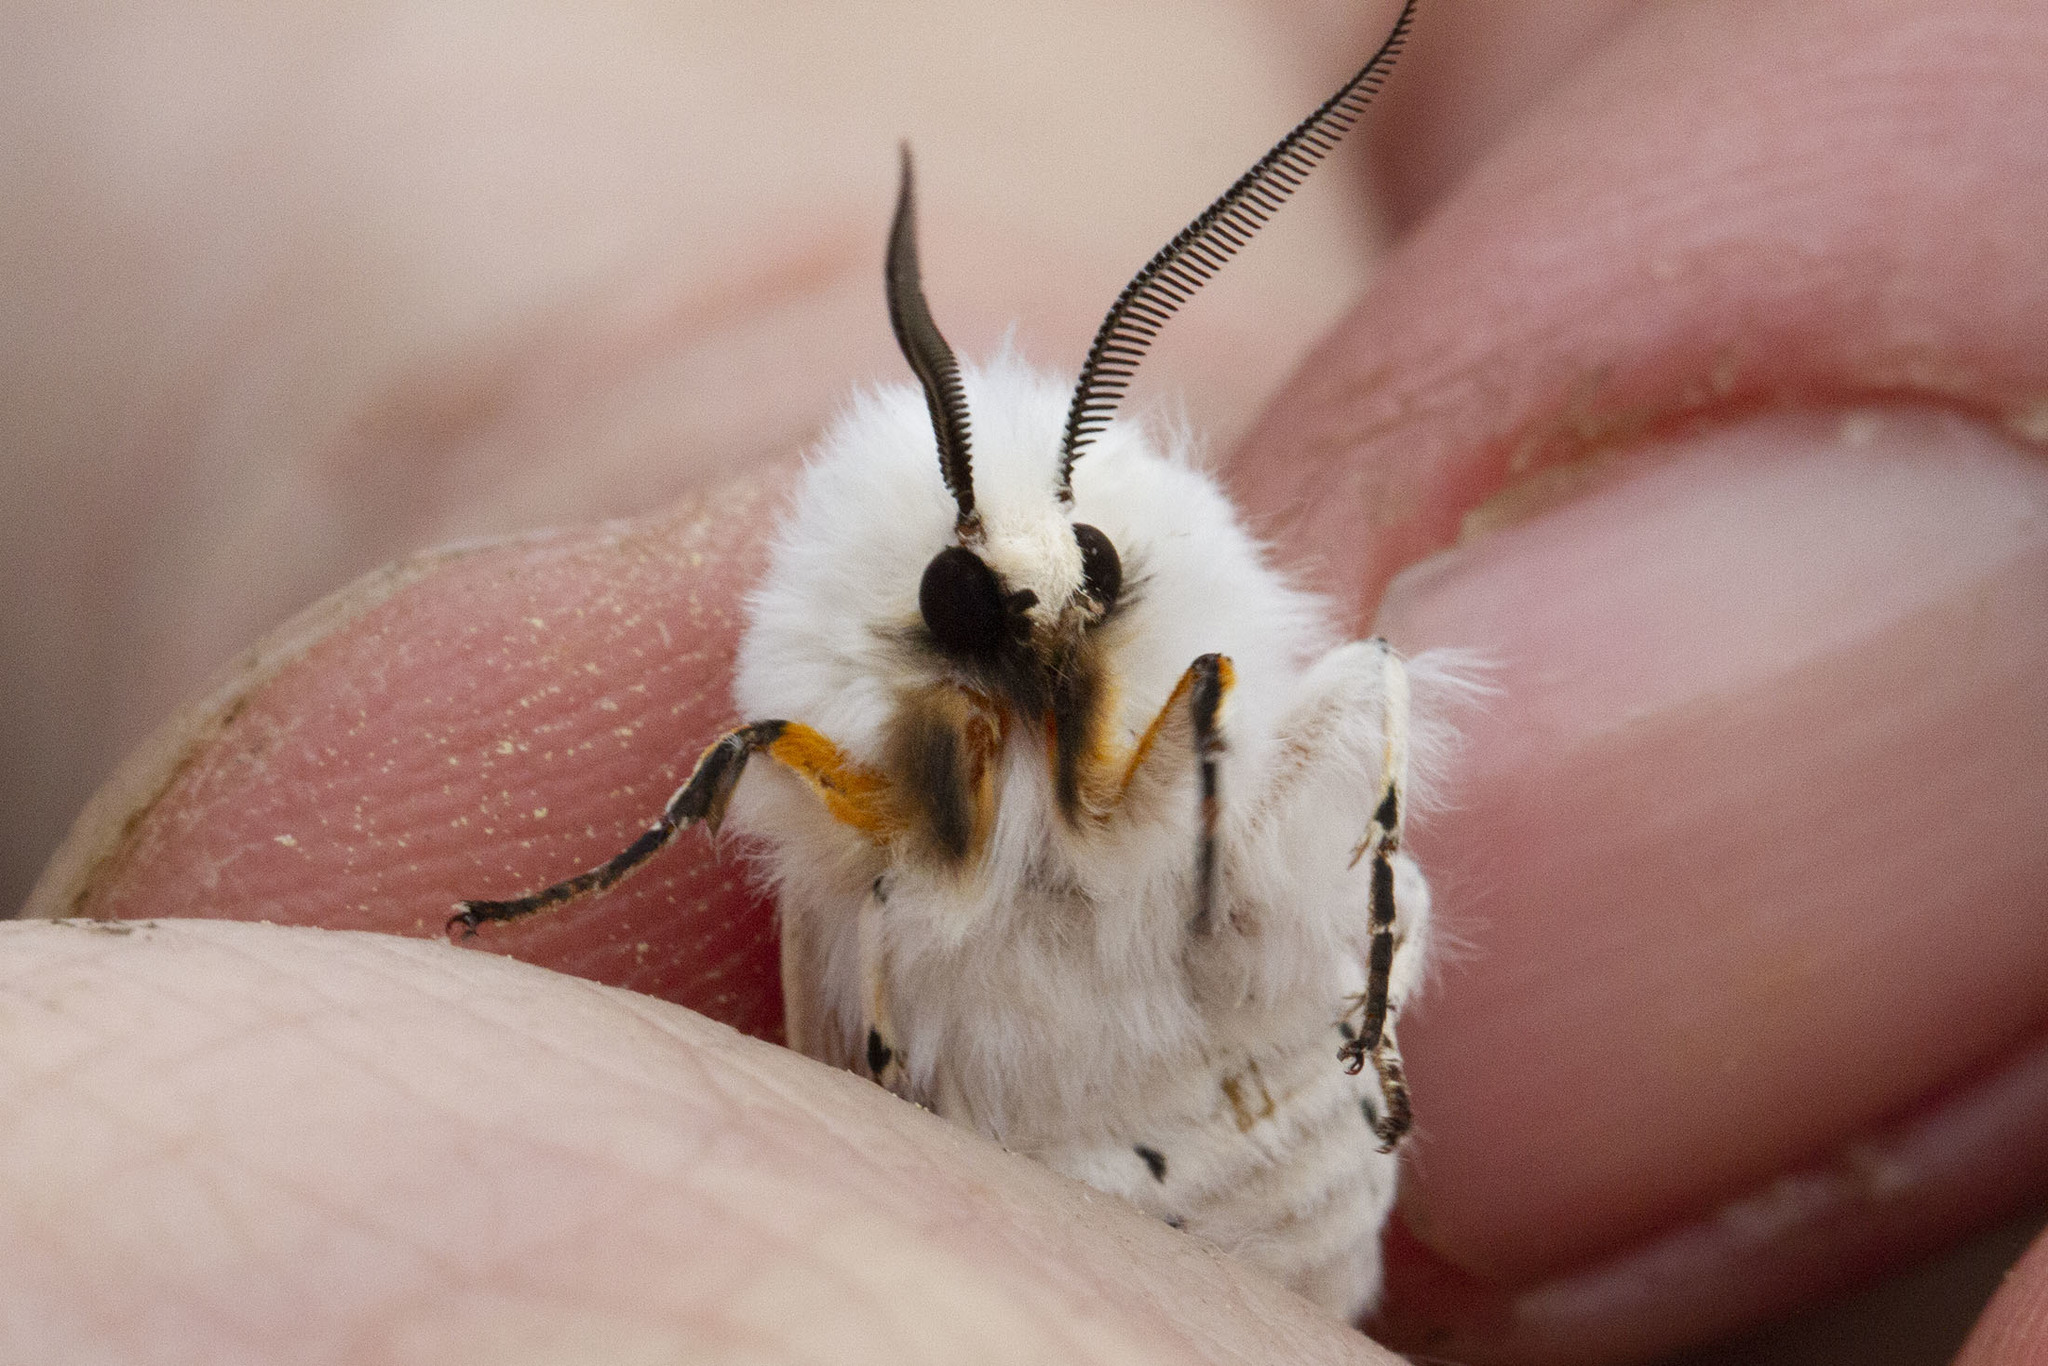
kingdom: Animalia
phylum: Arthropoda
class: Insecta
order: Lepidoptera
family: Erebidae
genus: Spilosoma
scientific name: Spilosoma dubia
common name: Dubious tiger moth
